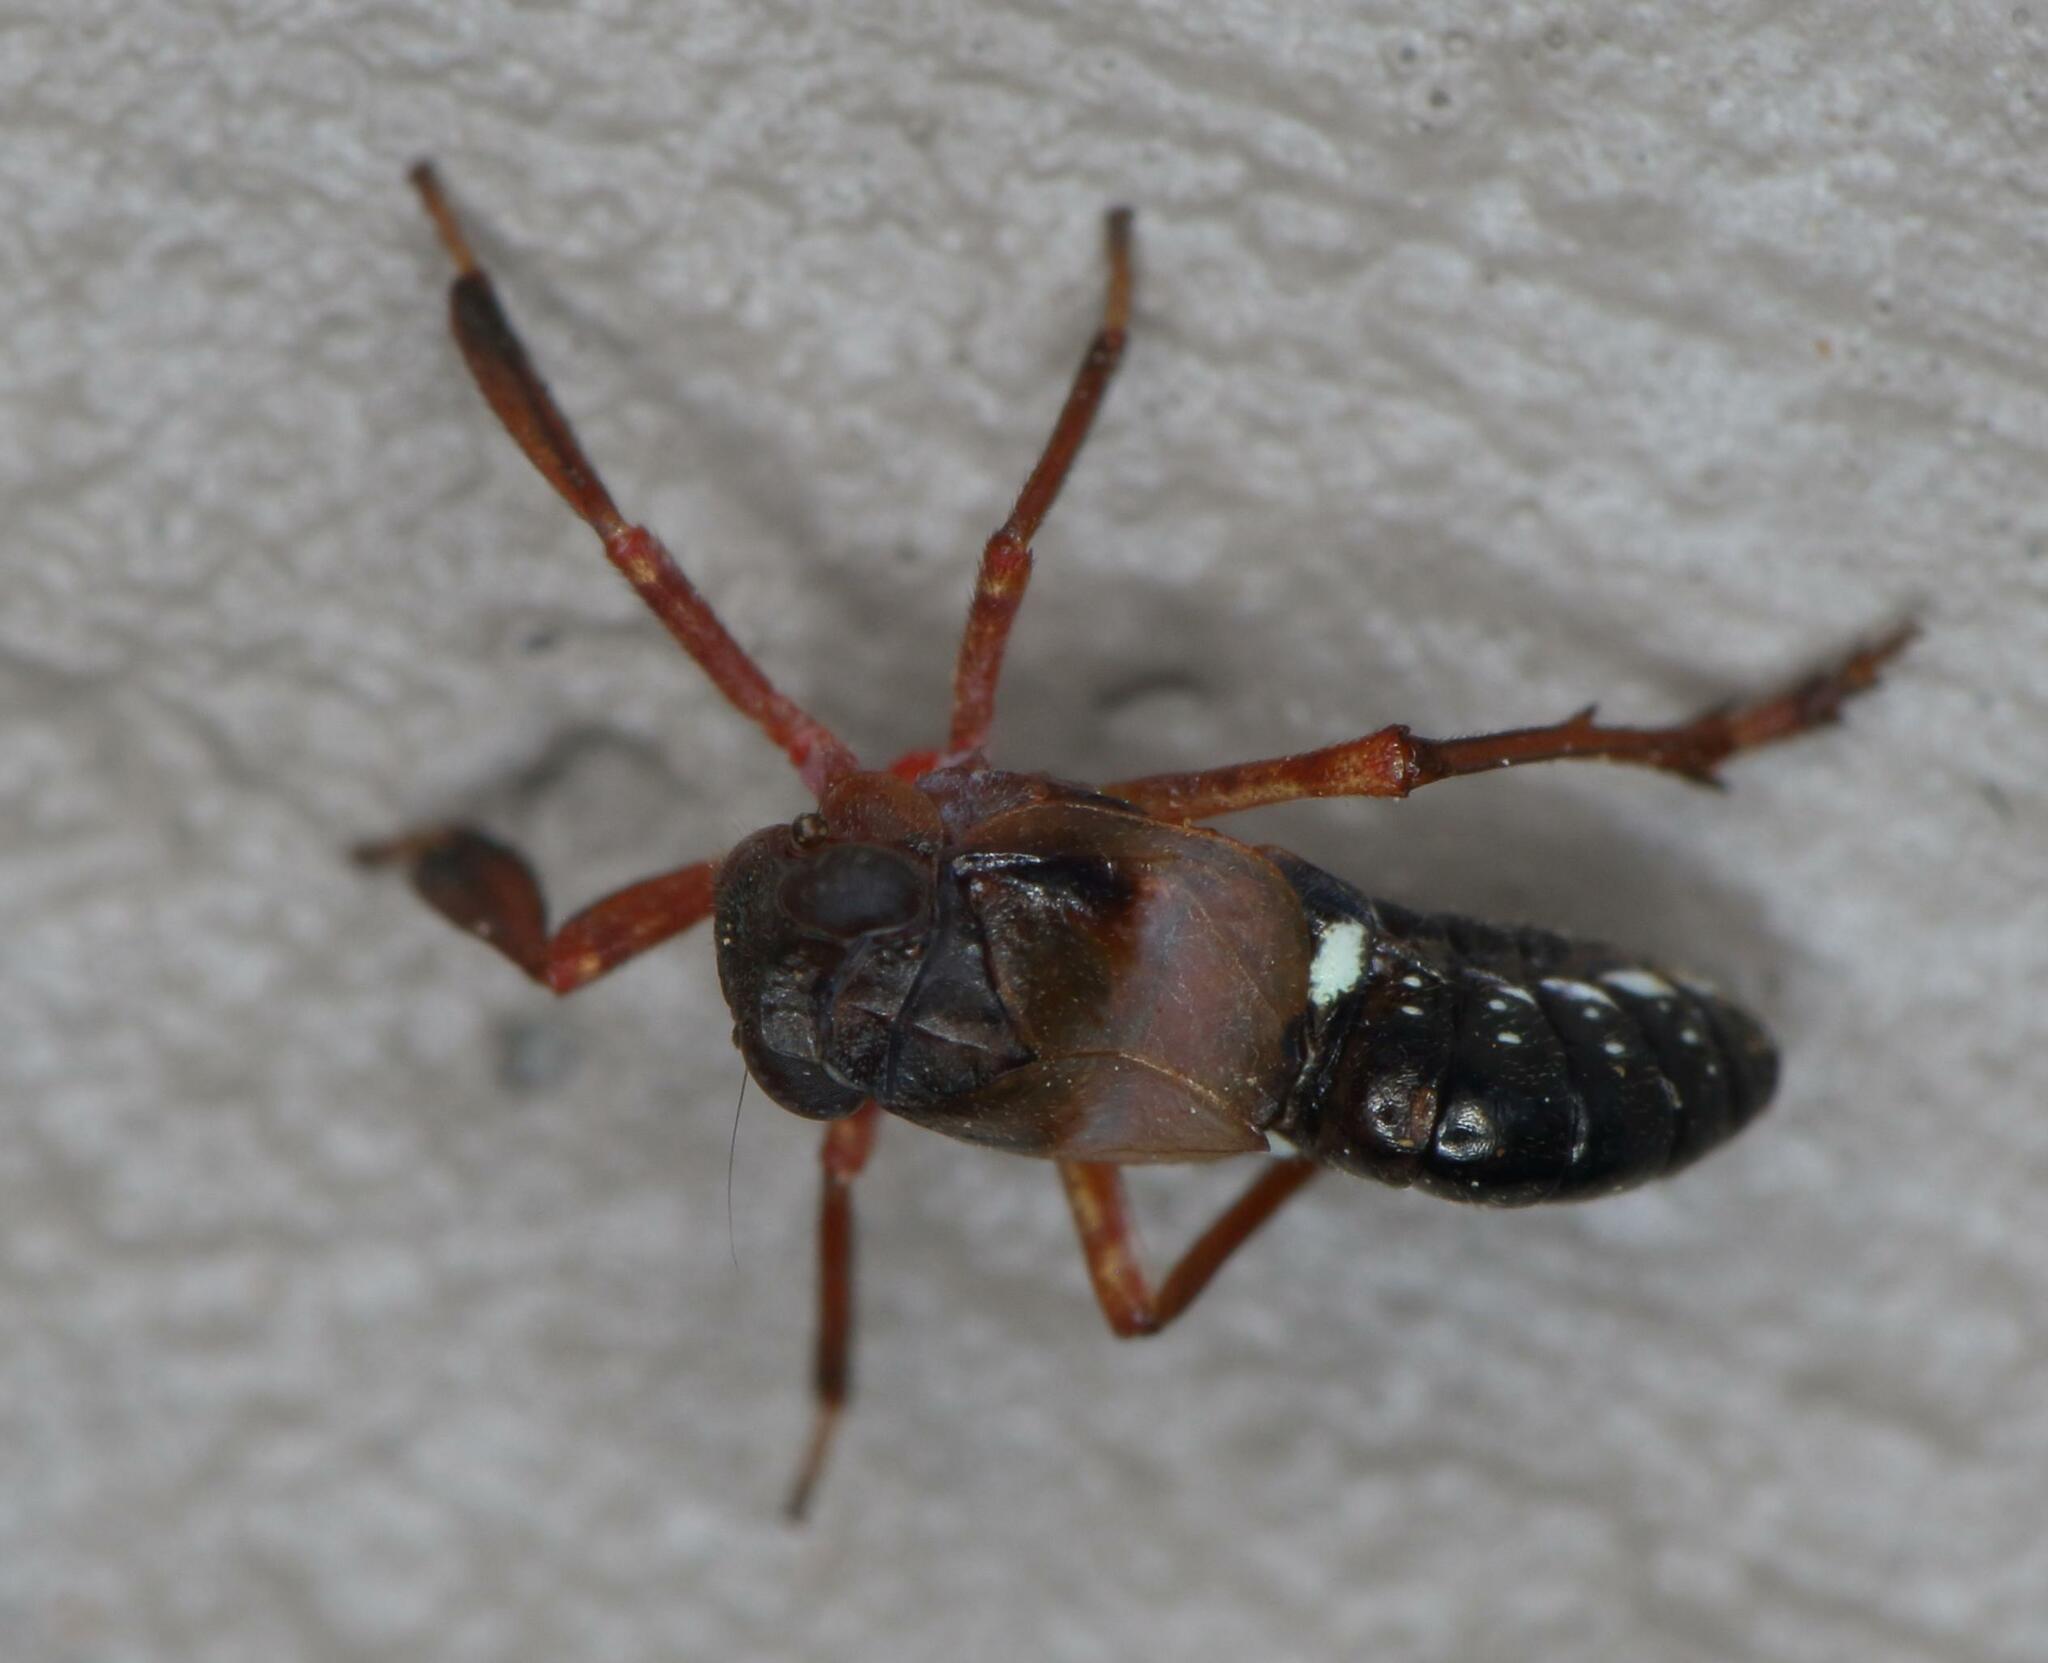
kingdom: Animalia
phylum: Arthropoda
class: Insecta
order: Hemiptera
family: Caliscelidae
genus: Caliscelis
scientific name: Caliscelis swazi
